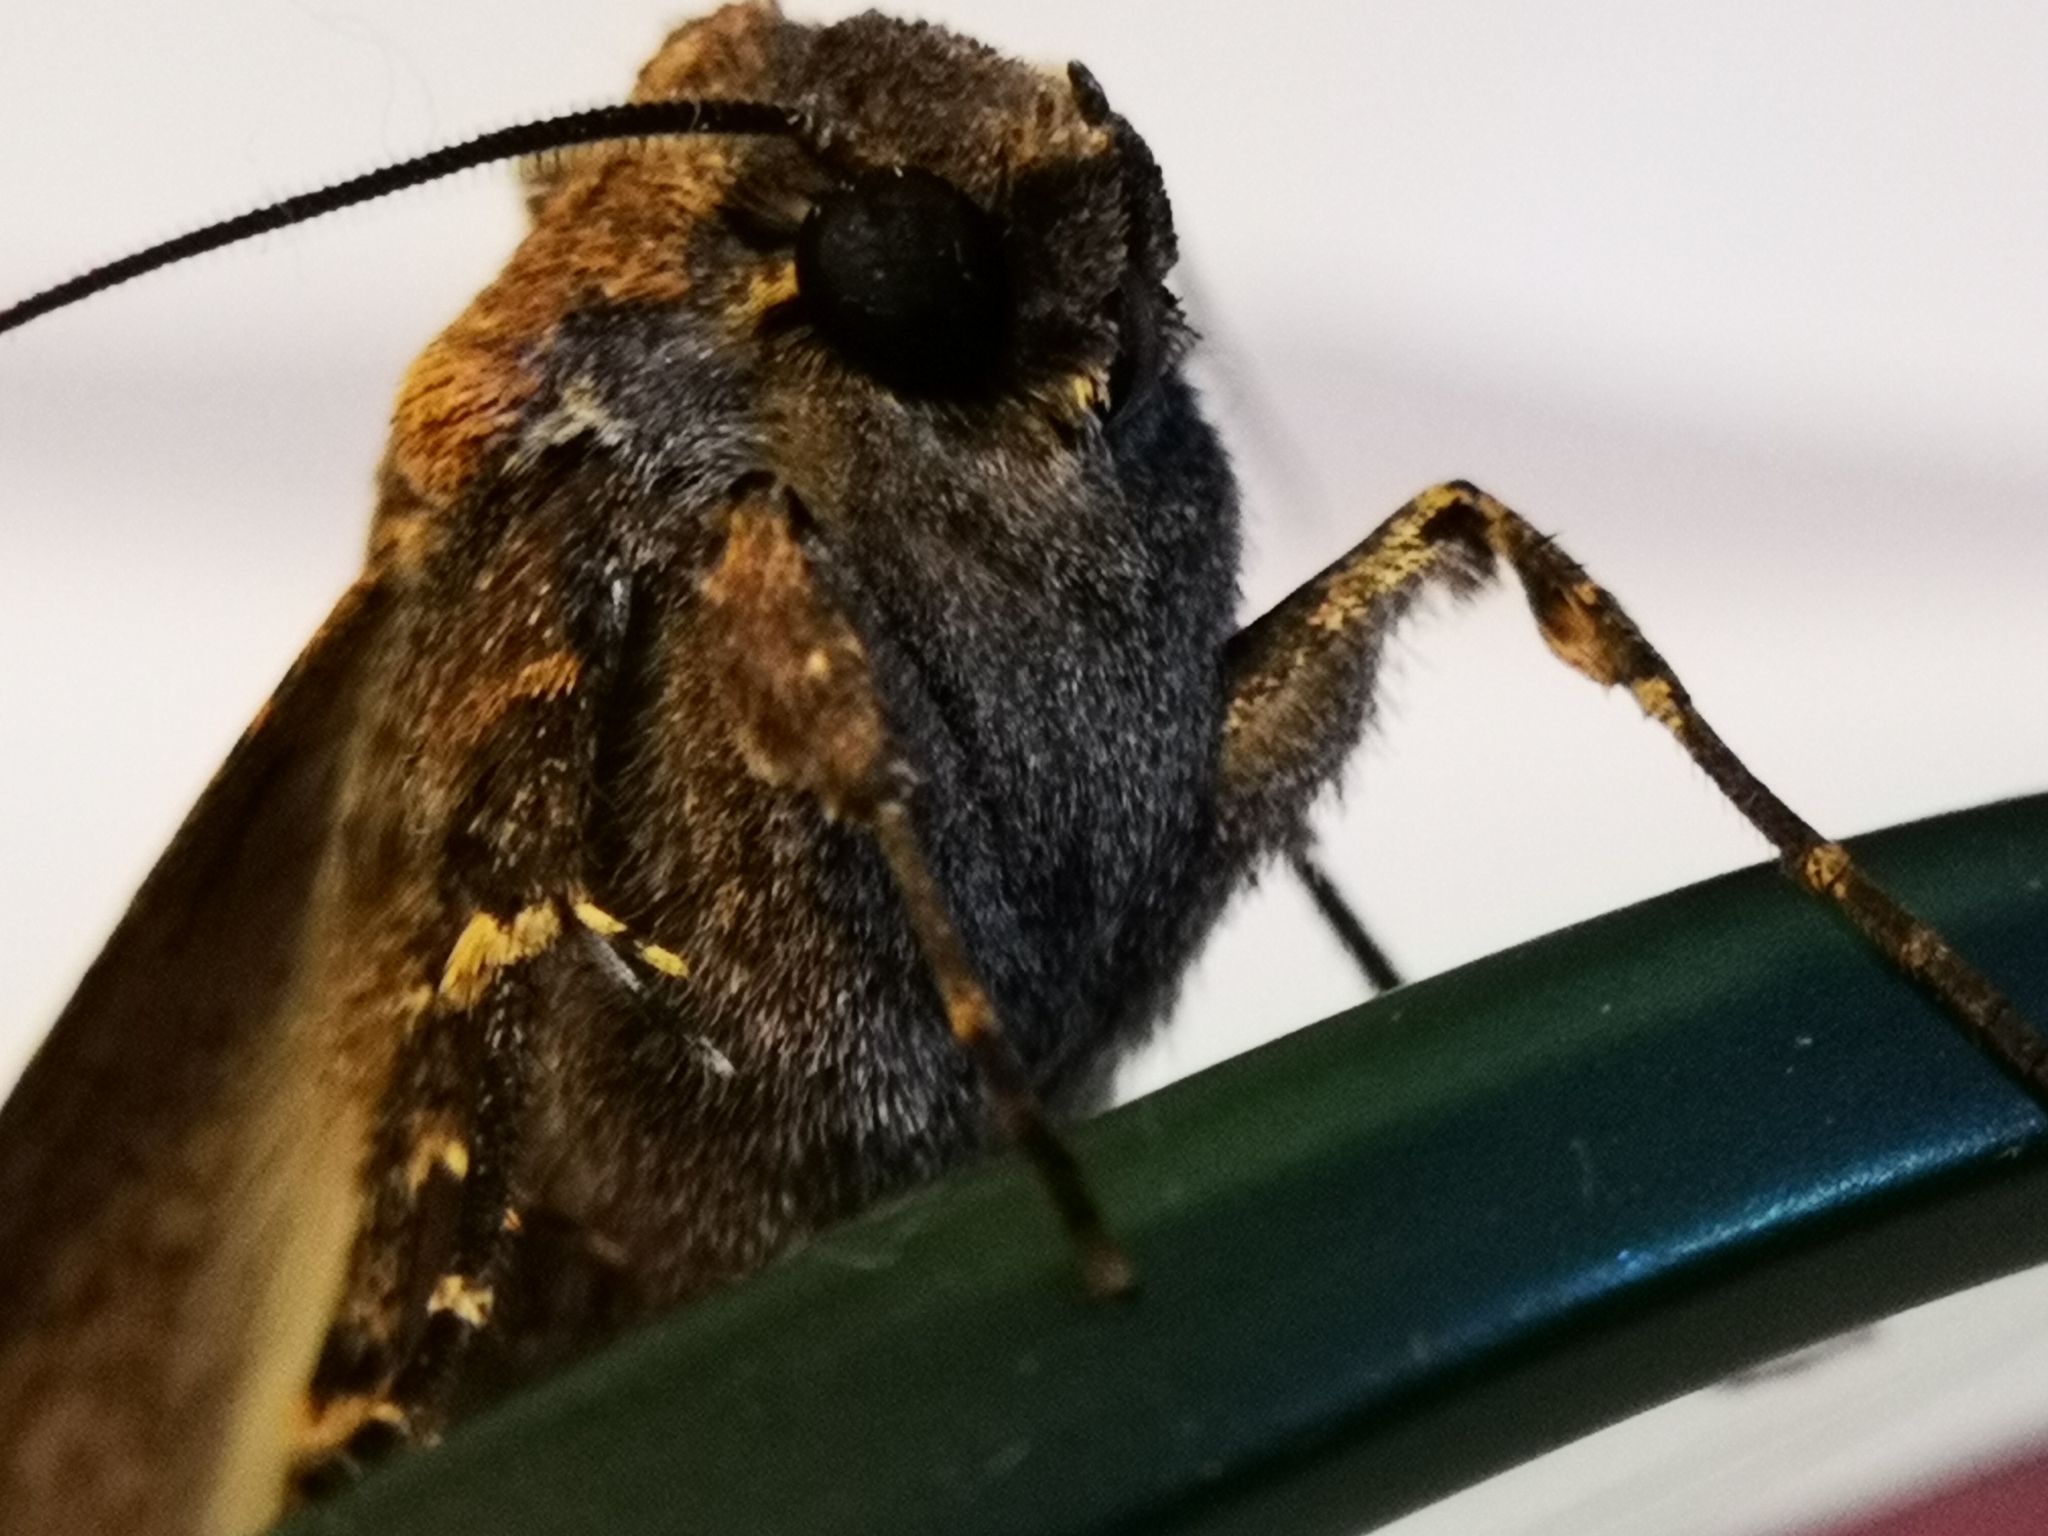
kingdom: Animalia
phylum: Arthropoda
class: Insecta
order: Lepidoptera
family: Noctuidae
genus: Peridroma
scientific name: Peridroma saucia
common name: Pearly underwing
